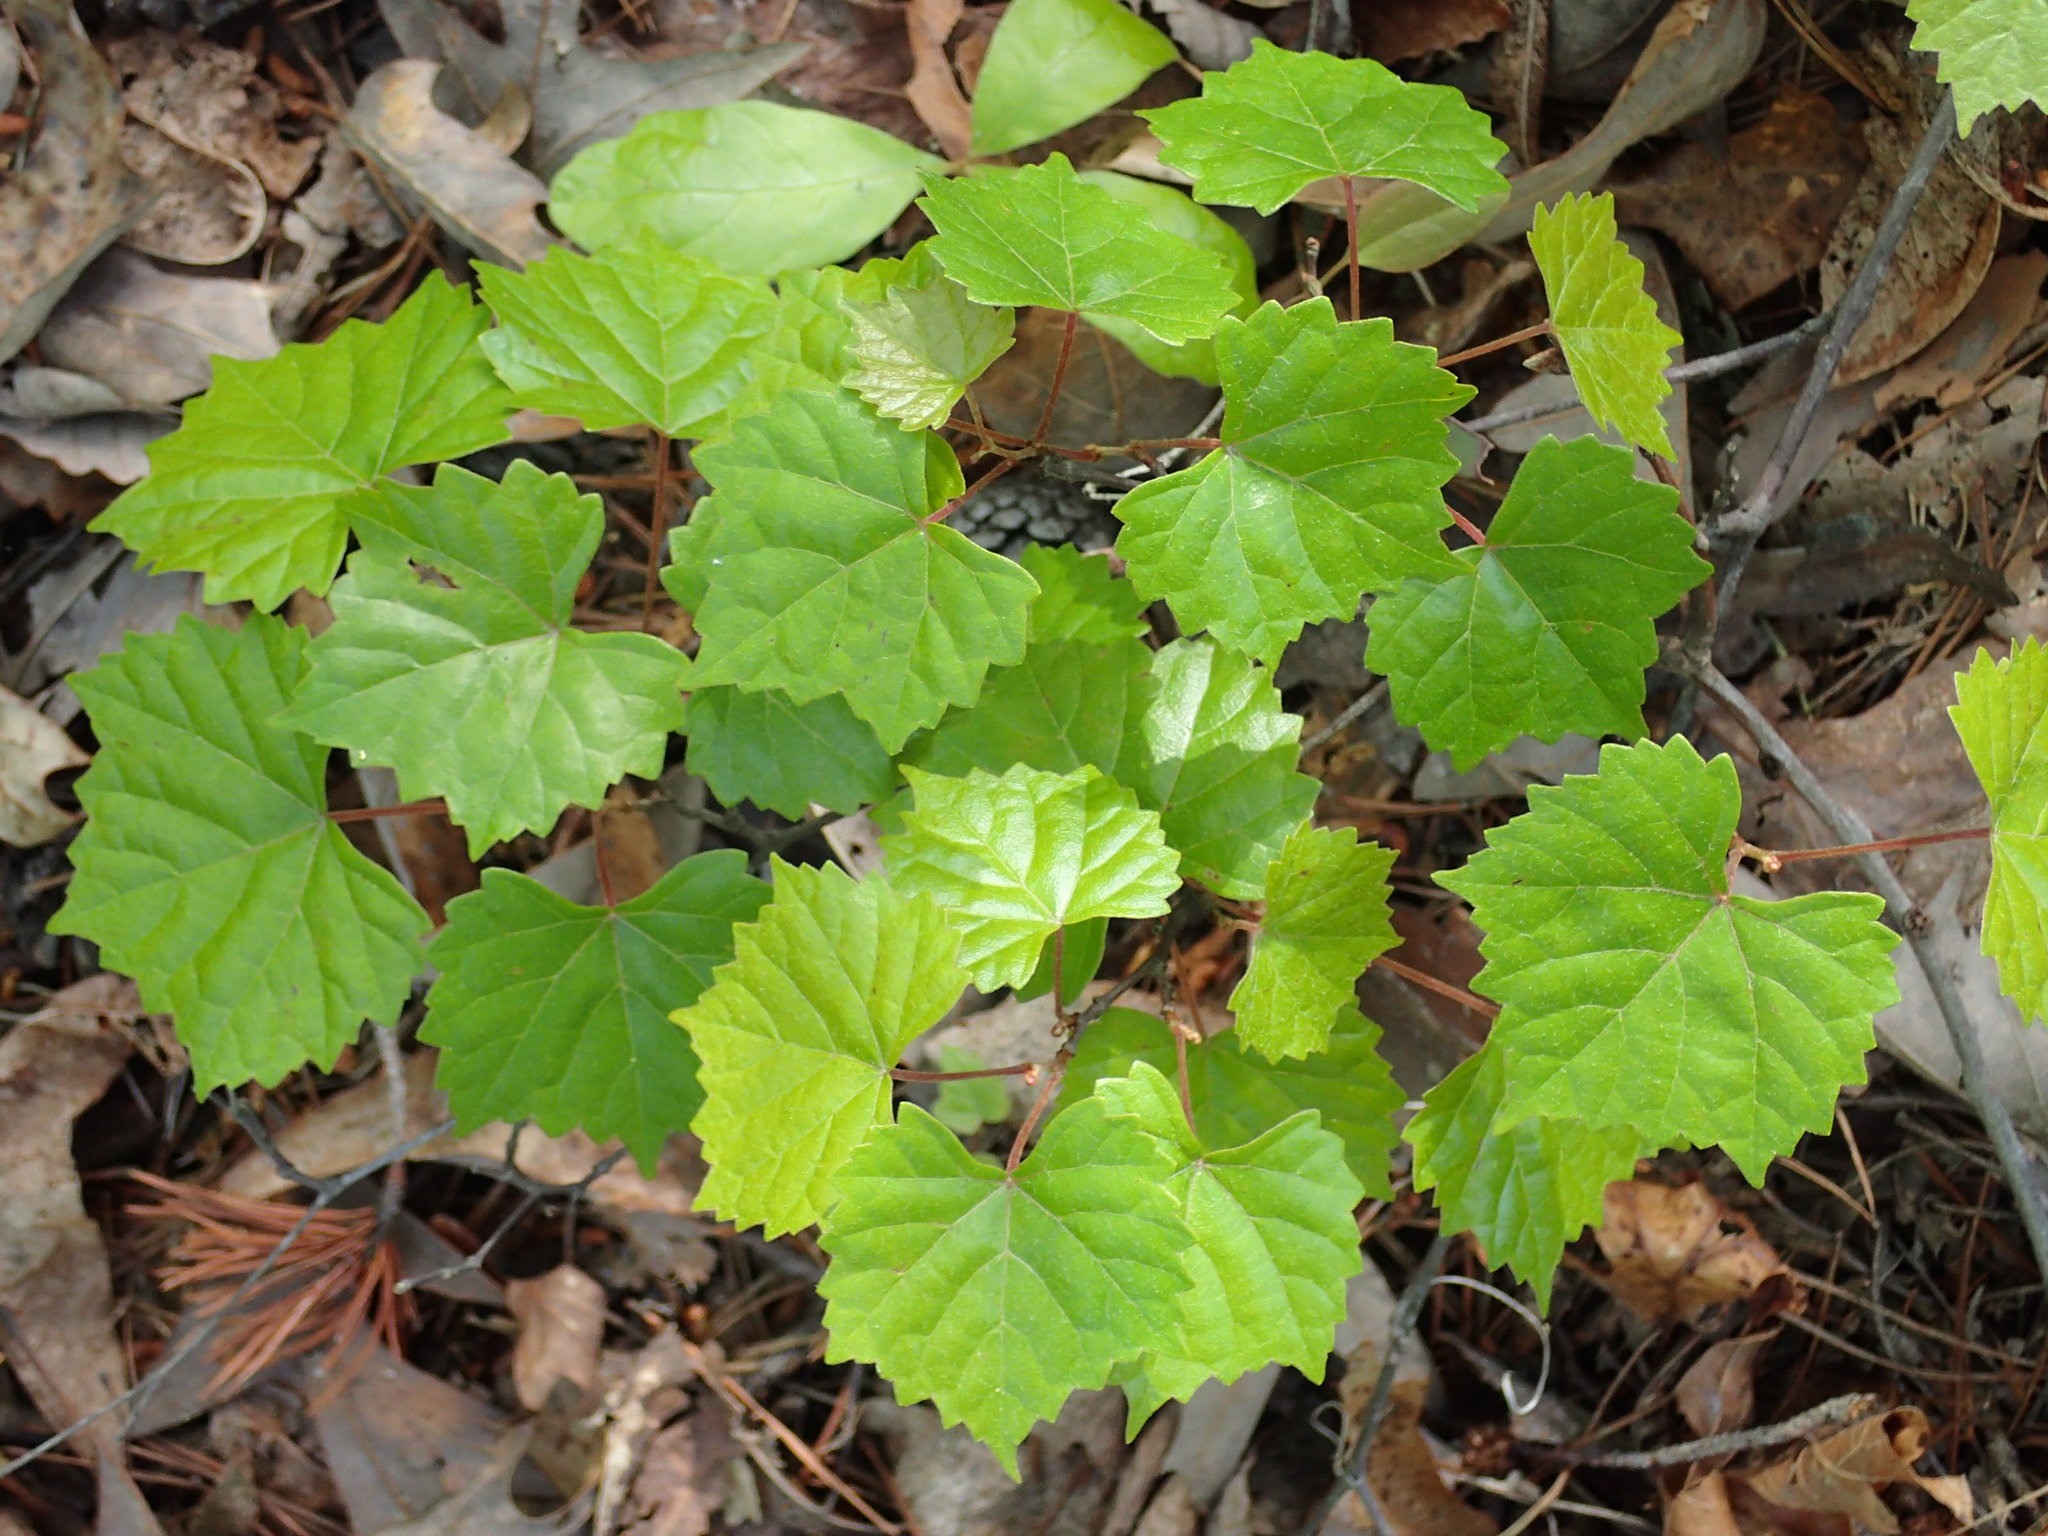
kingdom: Plantae
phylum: Tracheophyta
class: Magnoliopsida
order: Vitales
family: Vitaceae
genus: Vitis
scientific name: Vitis rotundifolia
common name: Muscadine grape
